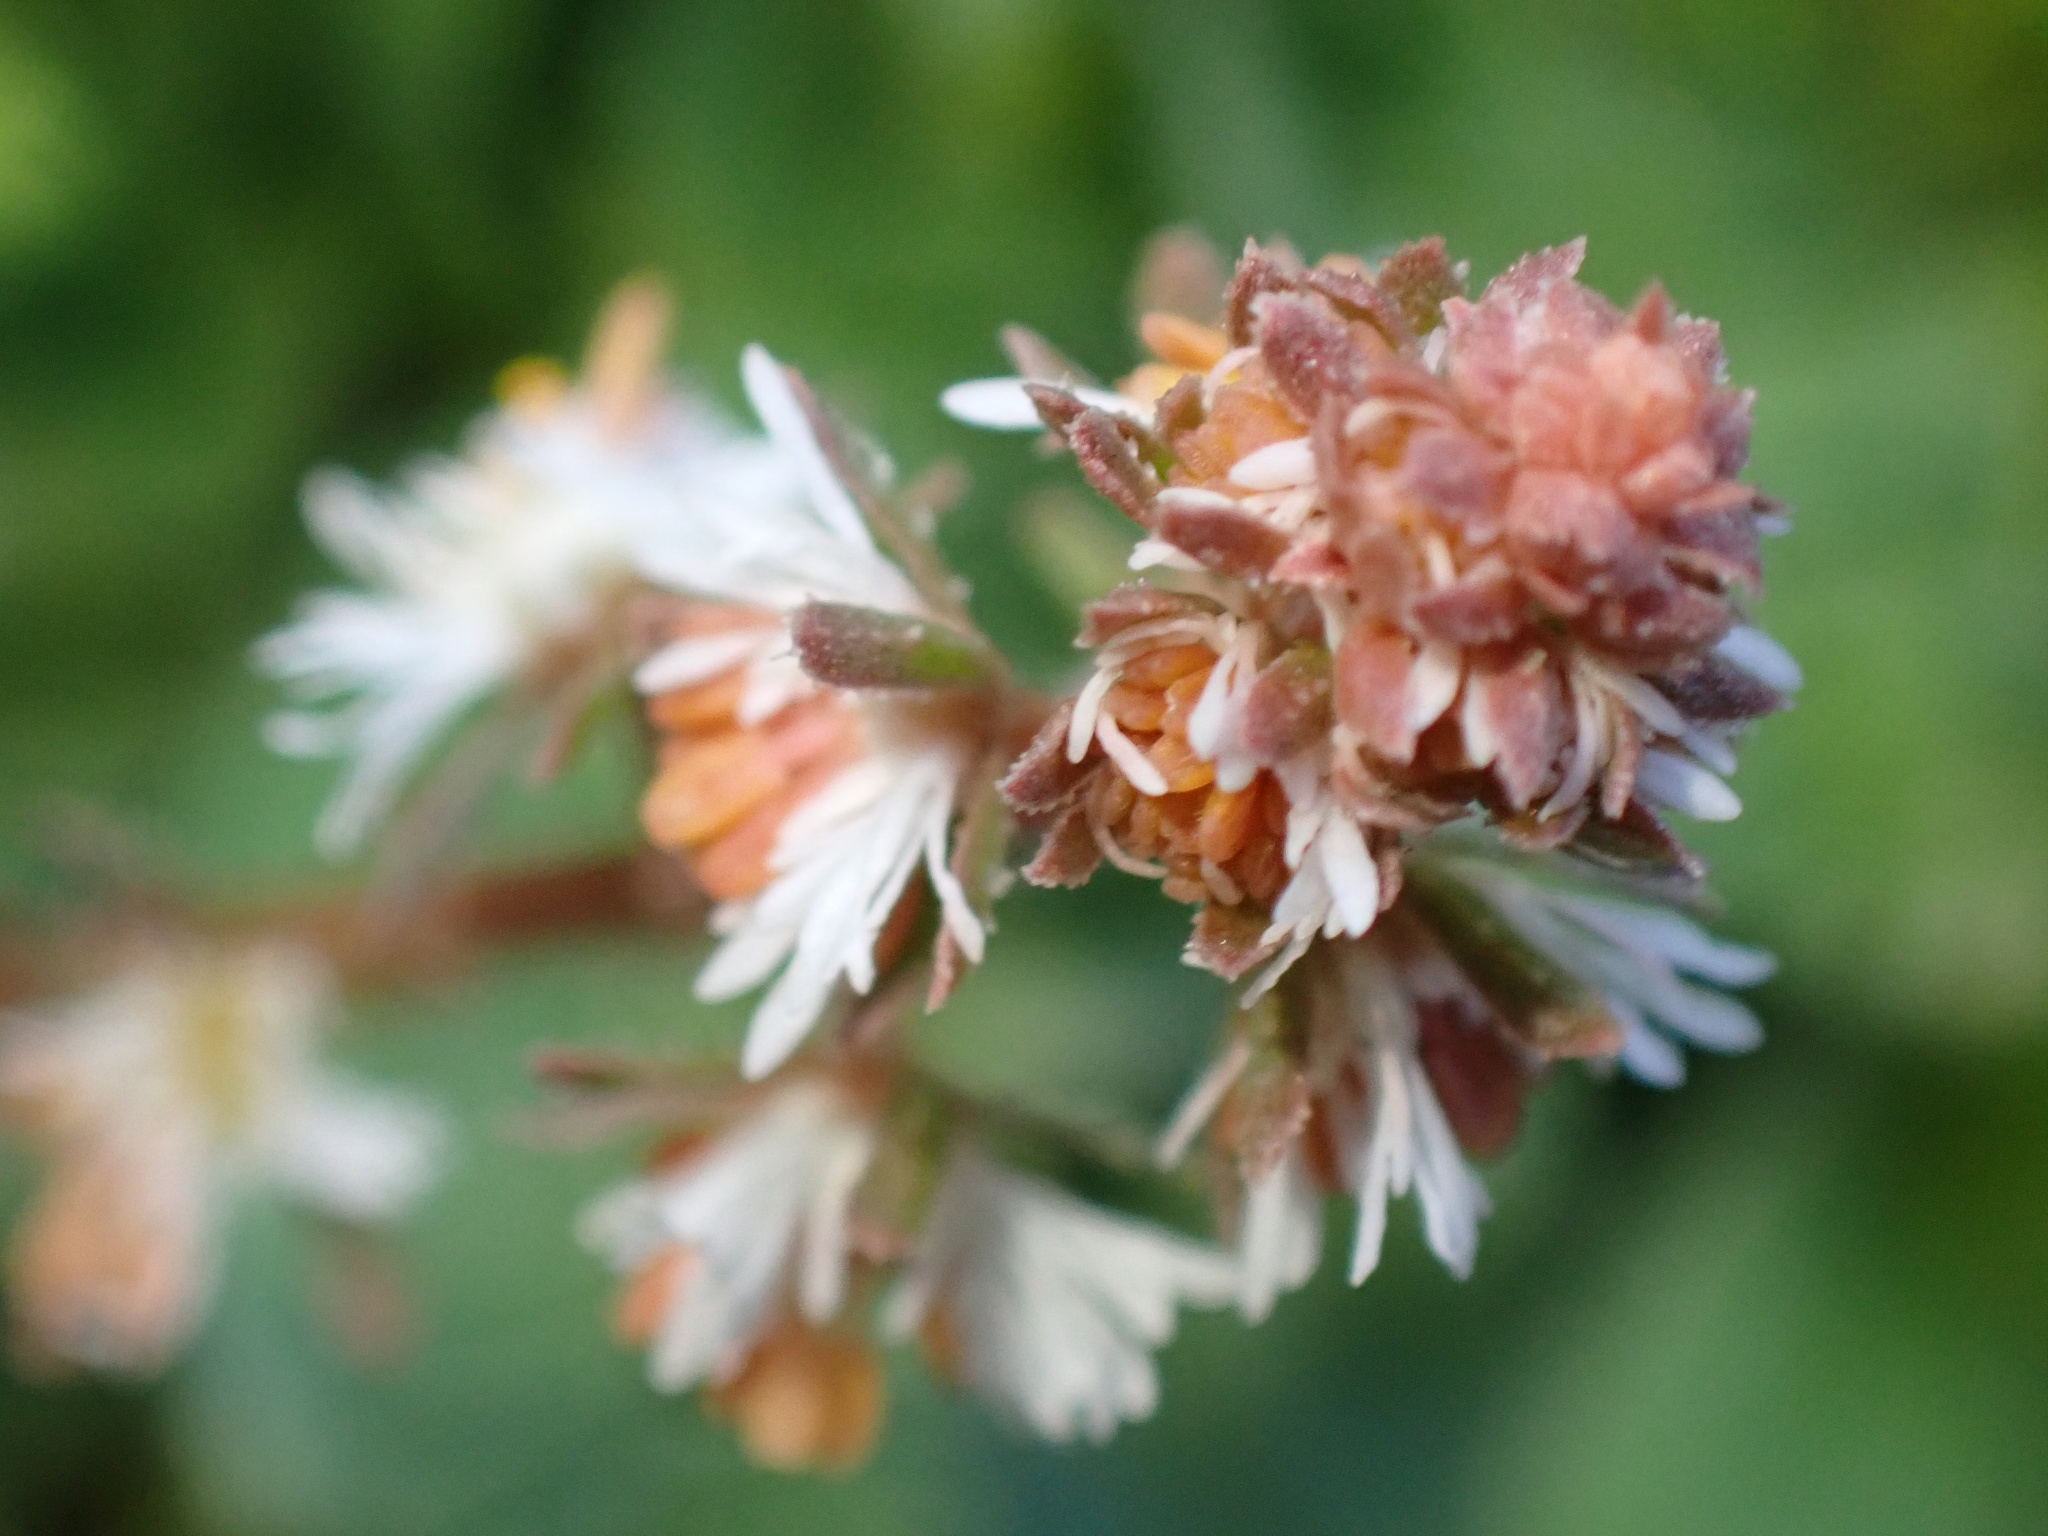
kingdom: Plantae
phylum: Tracheophyta
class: Magnoliopsida
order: Brassicales
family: Resedaceae
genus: Reseda
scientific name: Reseda phyteuma
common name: Corn mignonette
